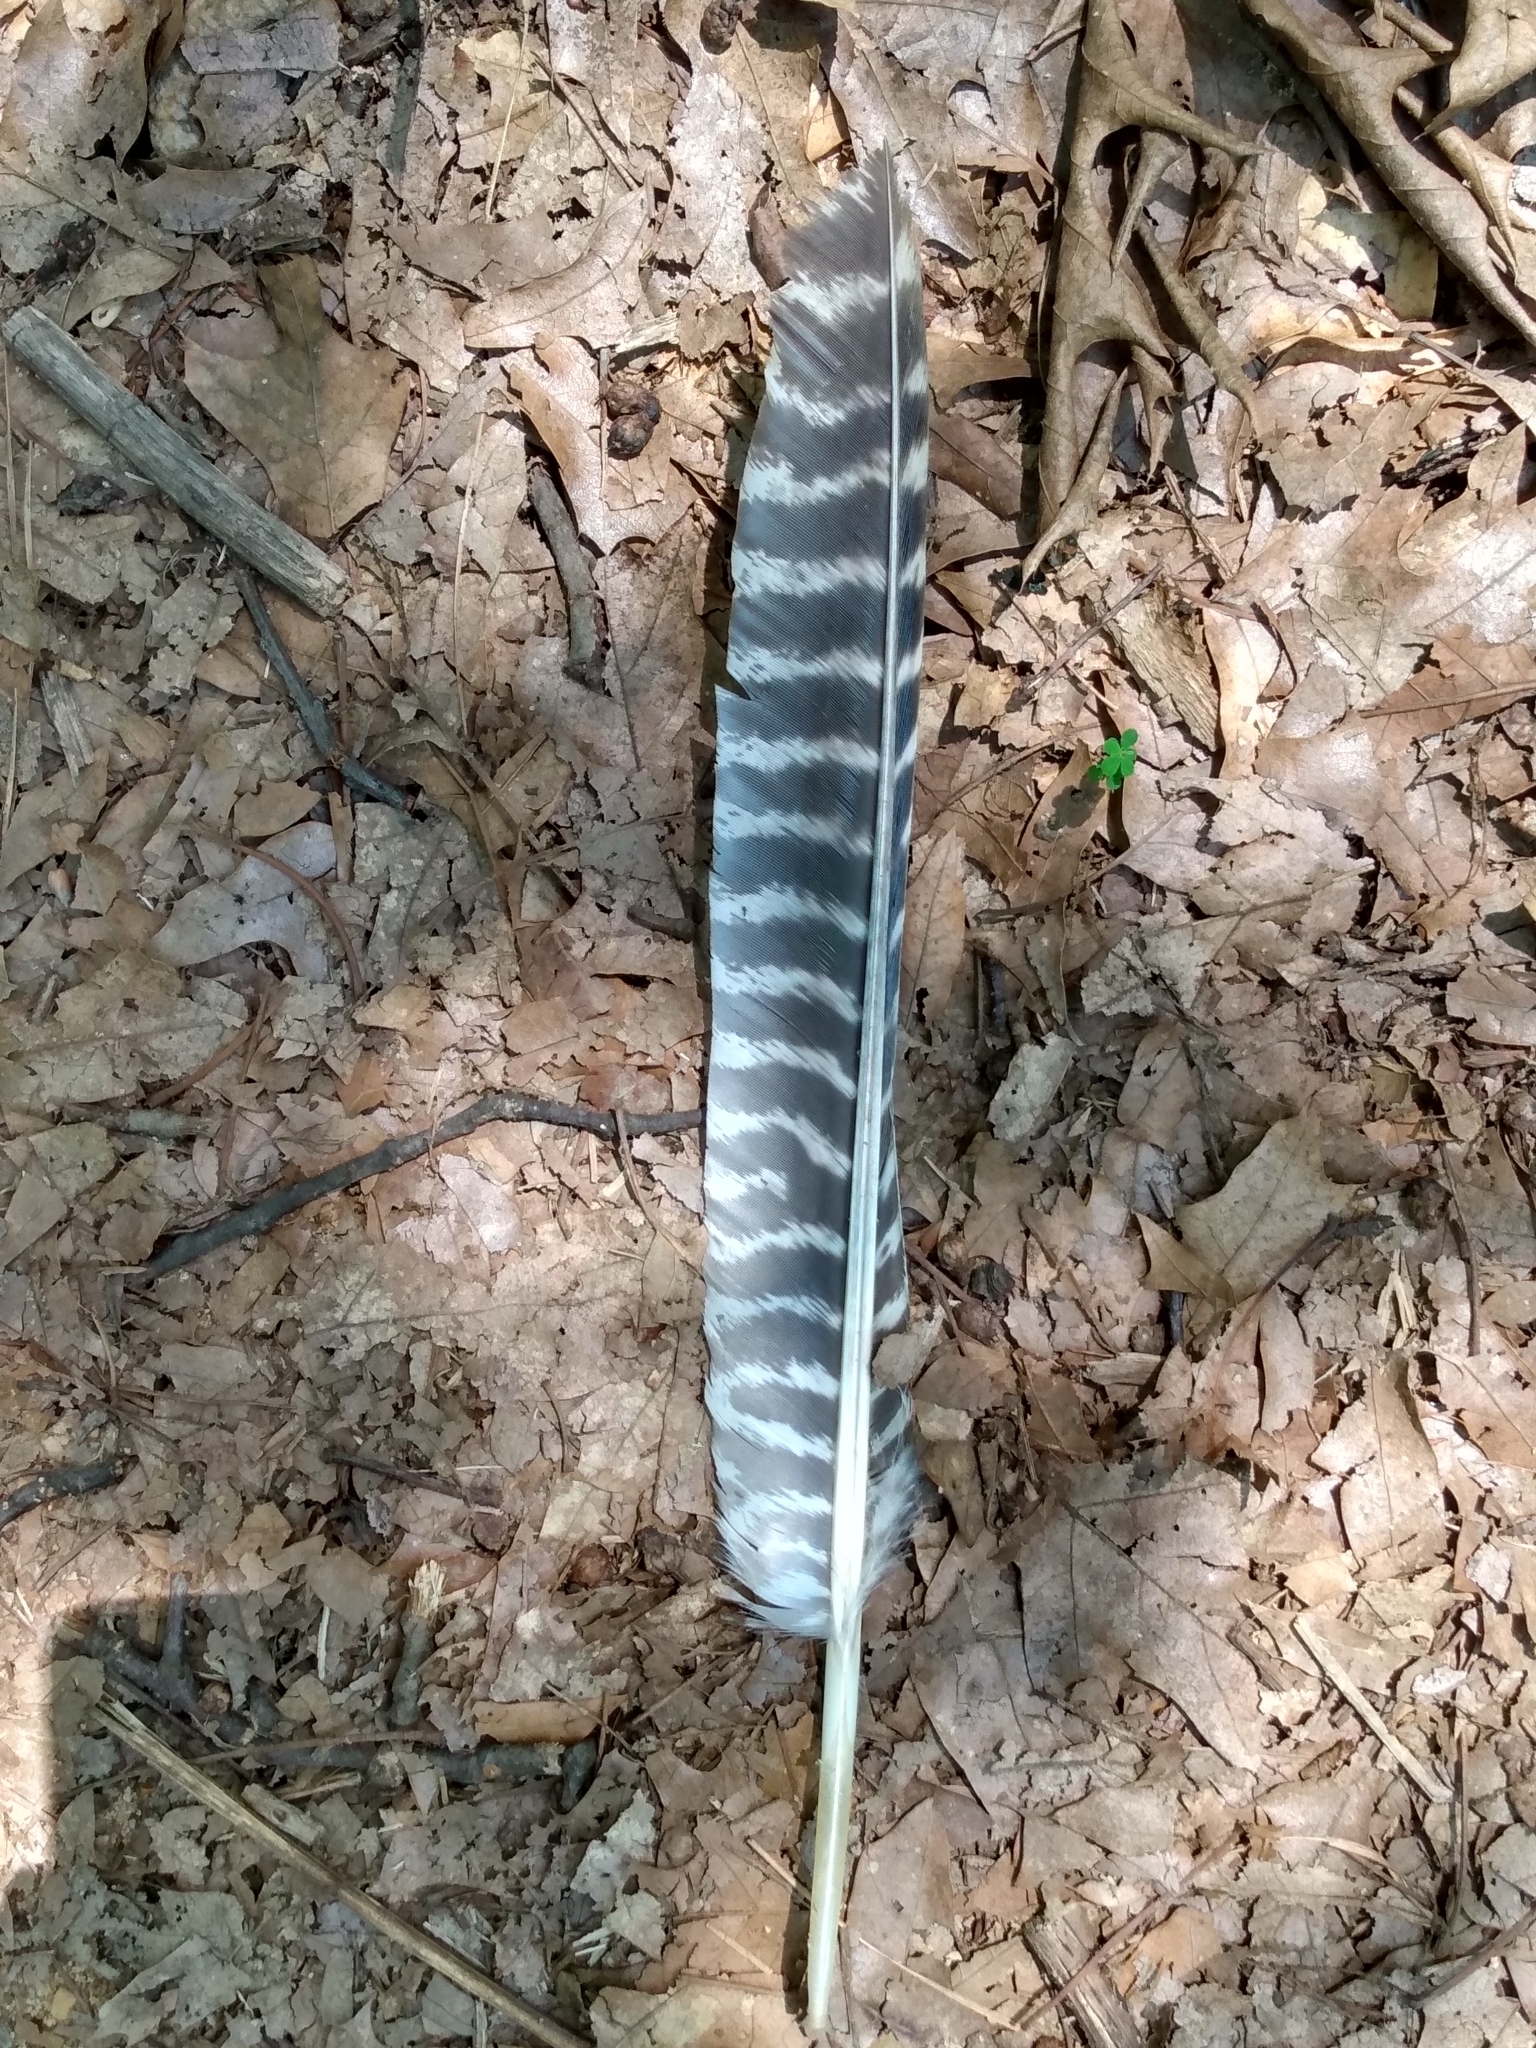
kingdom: Animalia
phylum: Chordata
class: Aves
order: Galliformes
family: Phasianidae
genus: Meleagris
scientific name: Meleagris gallopavo
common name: Wild turkey
